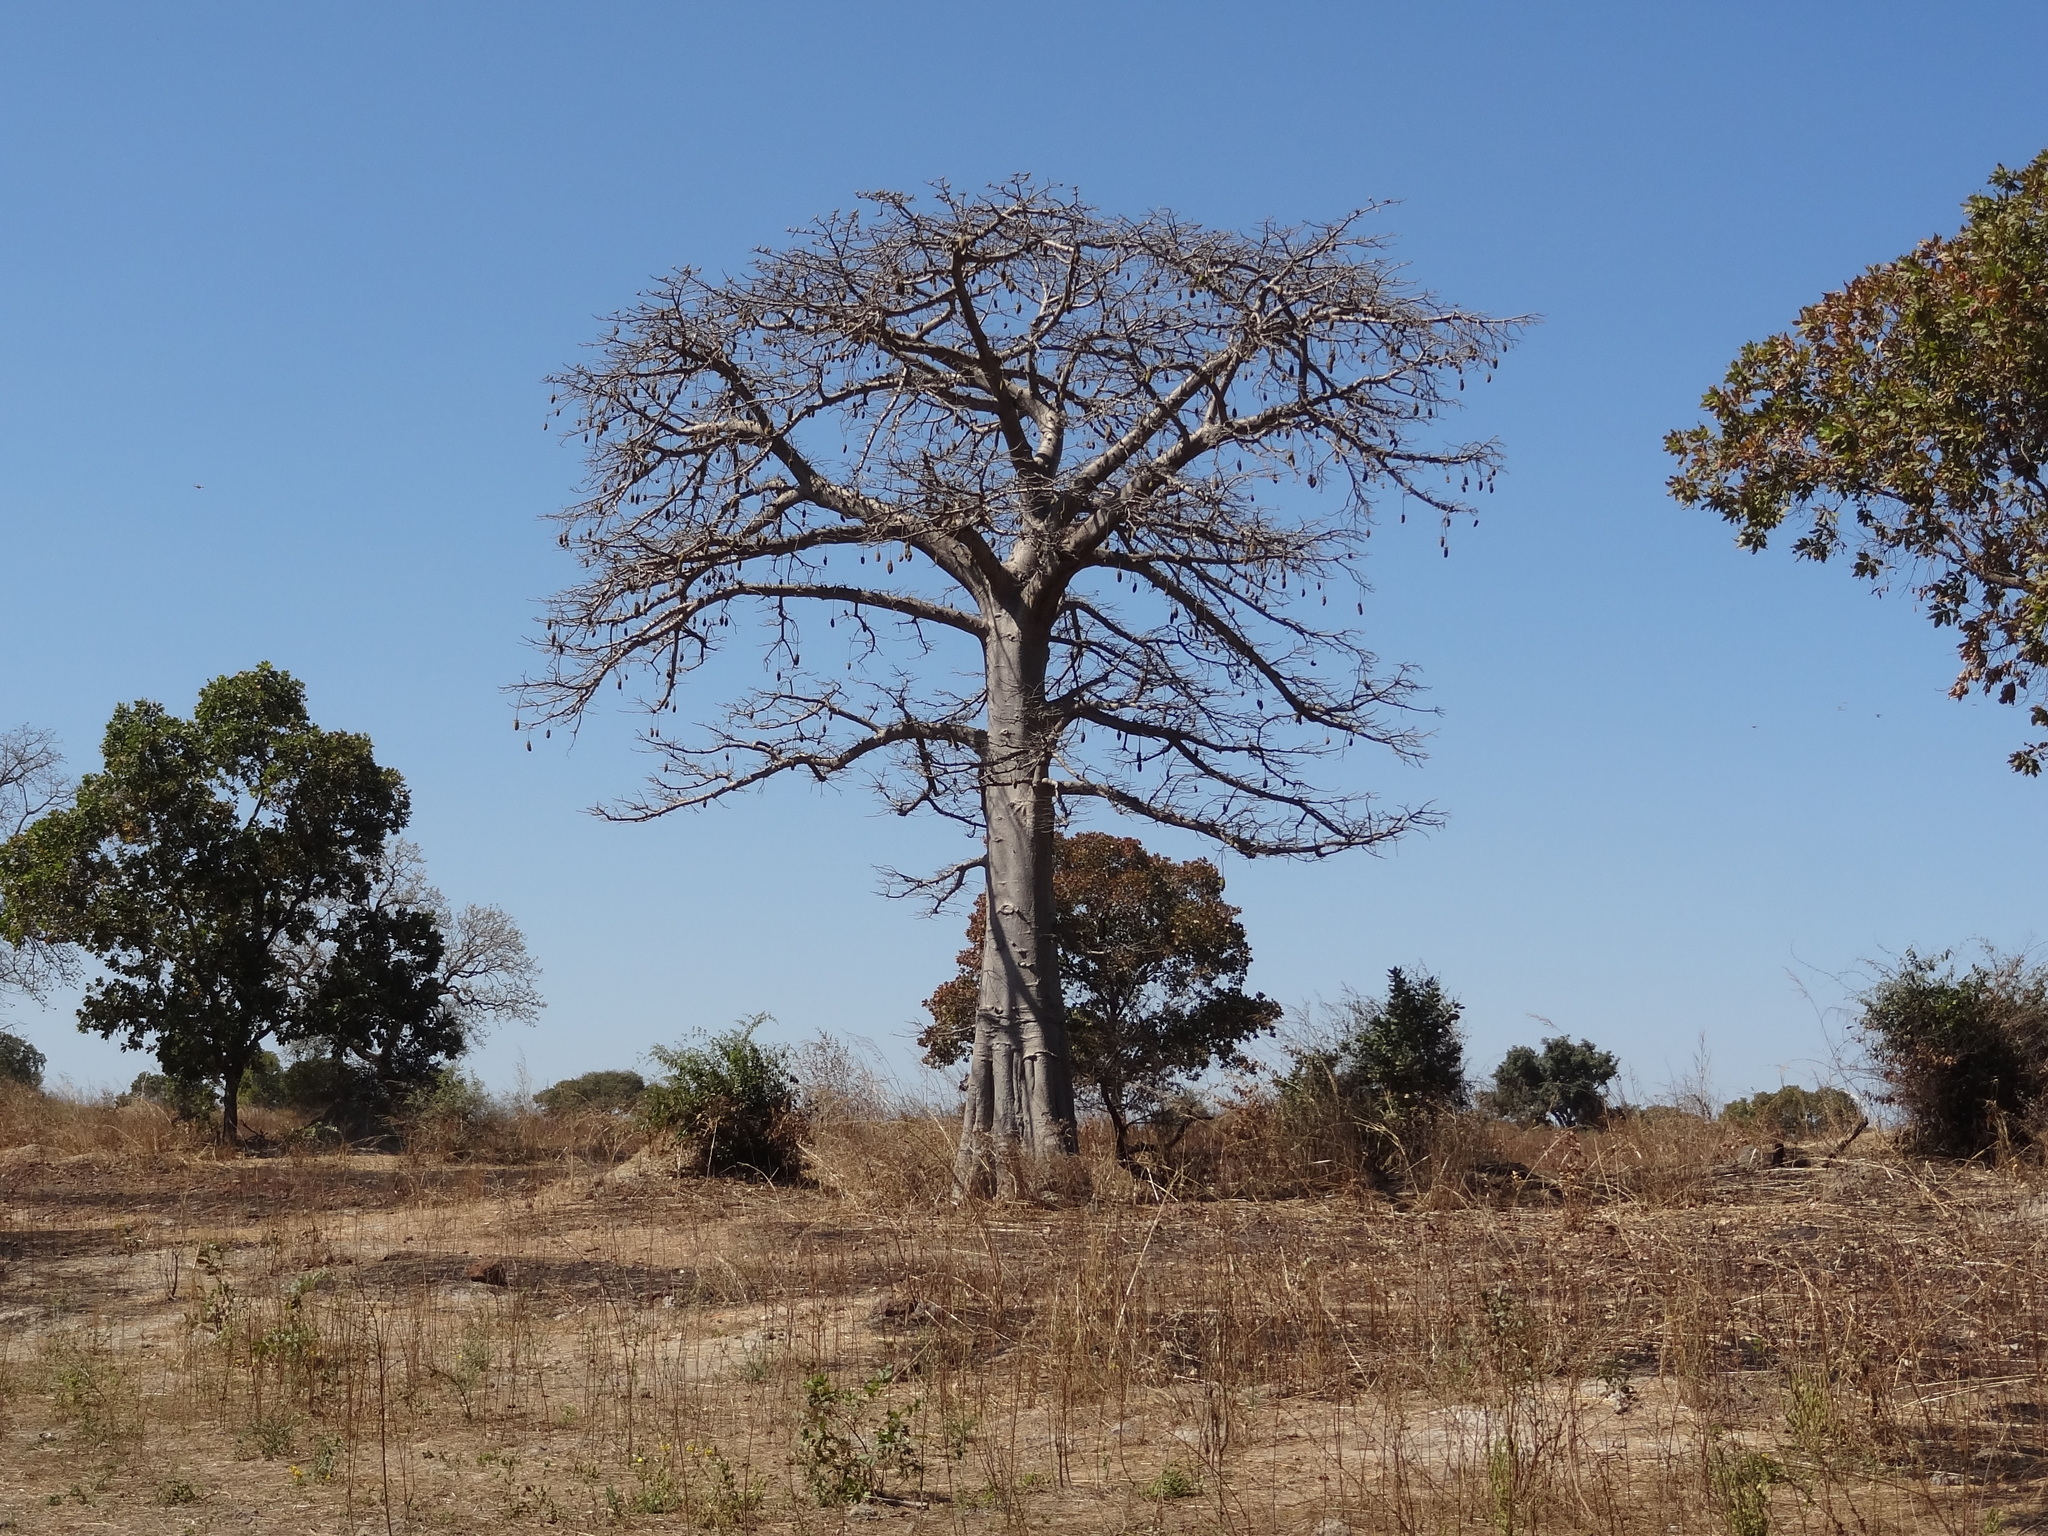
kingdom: Plantae
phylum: Tracheophyta
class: Magnoliopsida
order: Malvales
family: Malvaceae
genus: Adansonia
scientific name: Adansonia digitata
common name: Dead-rat-tree
